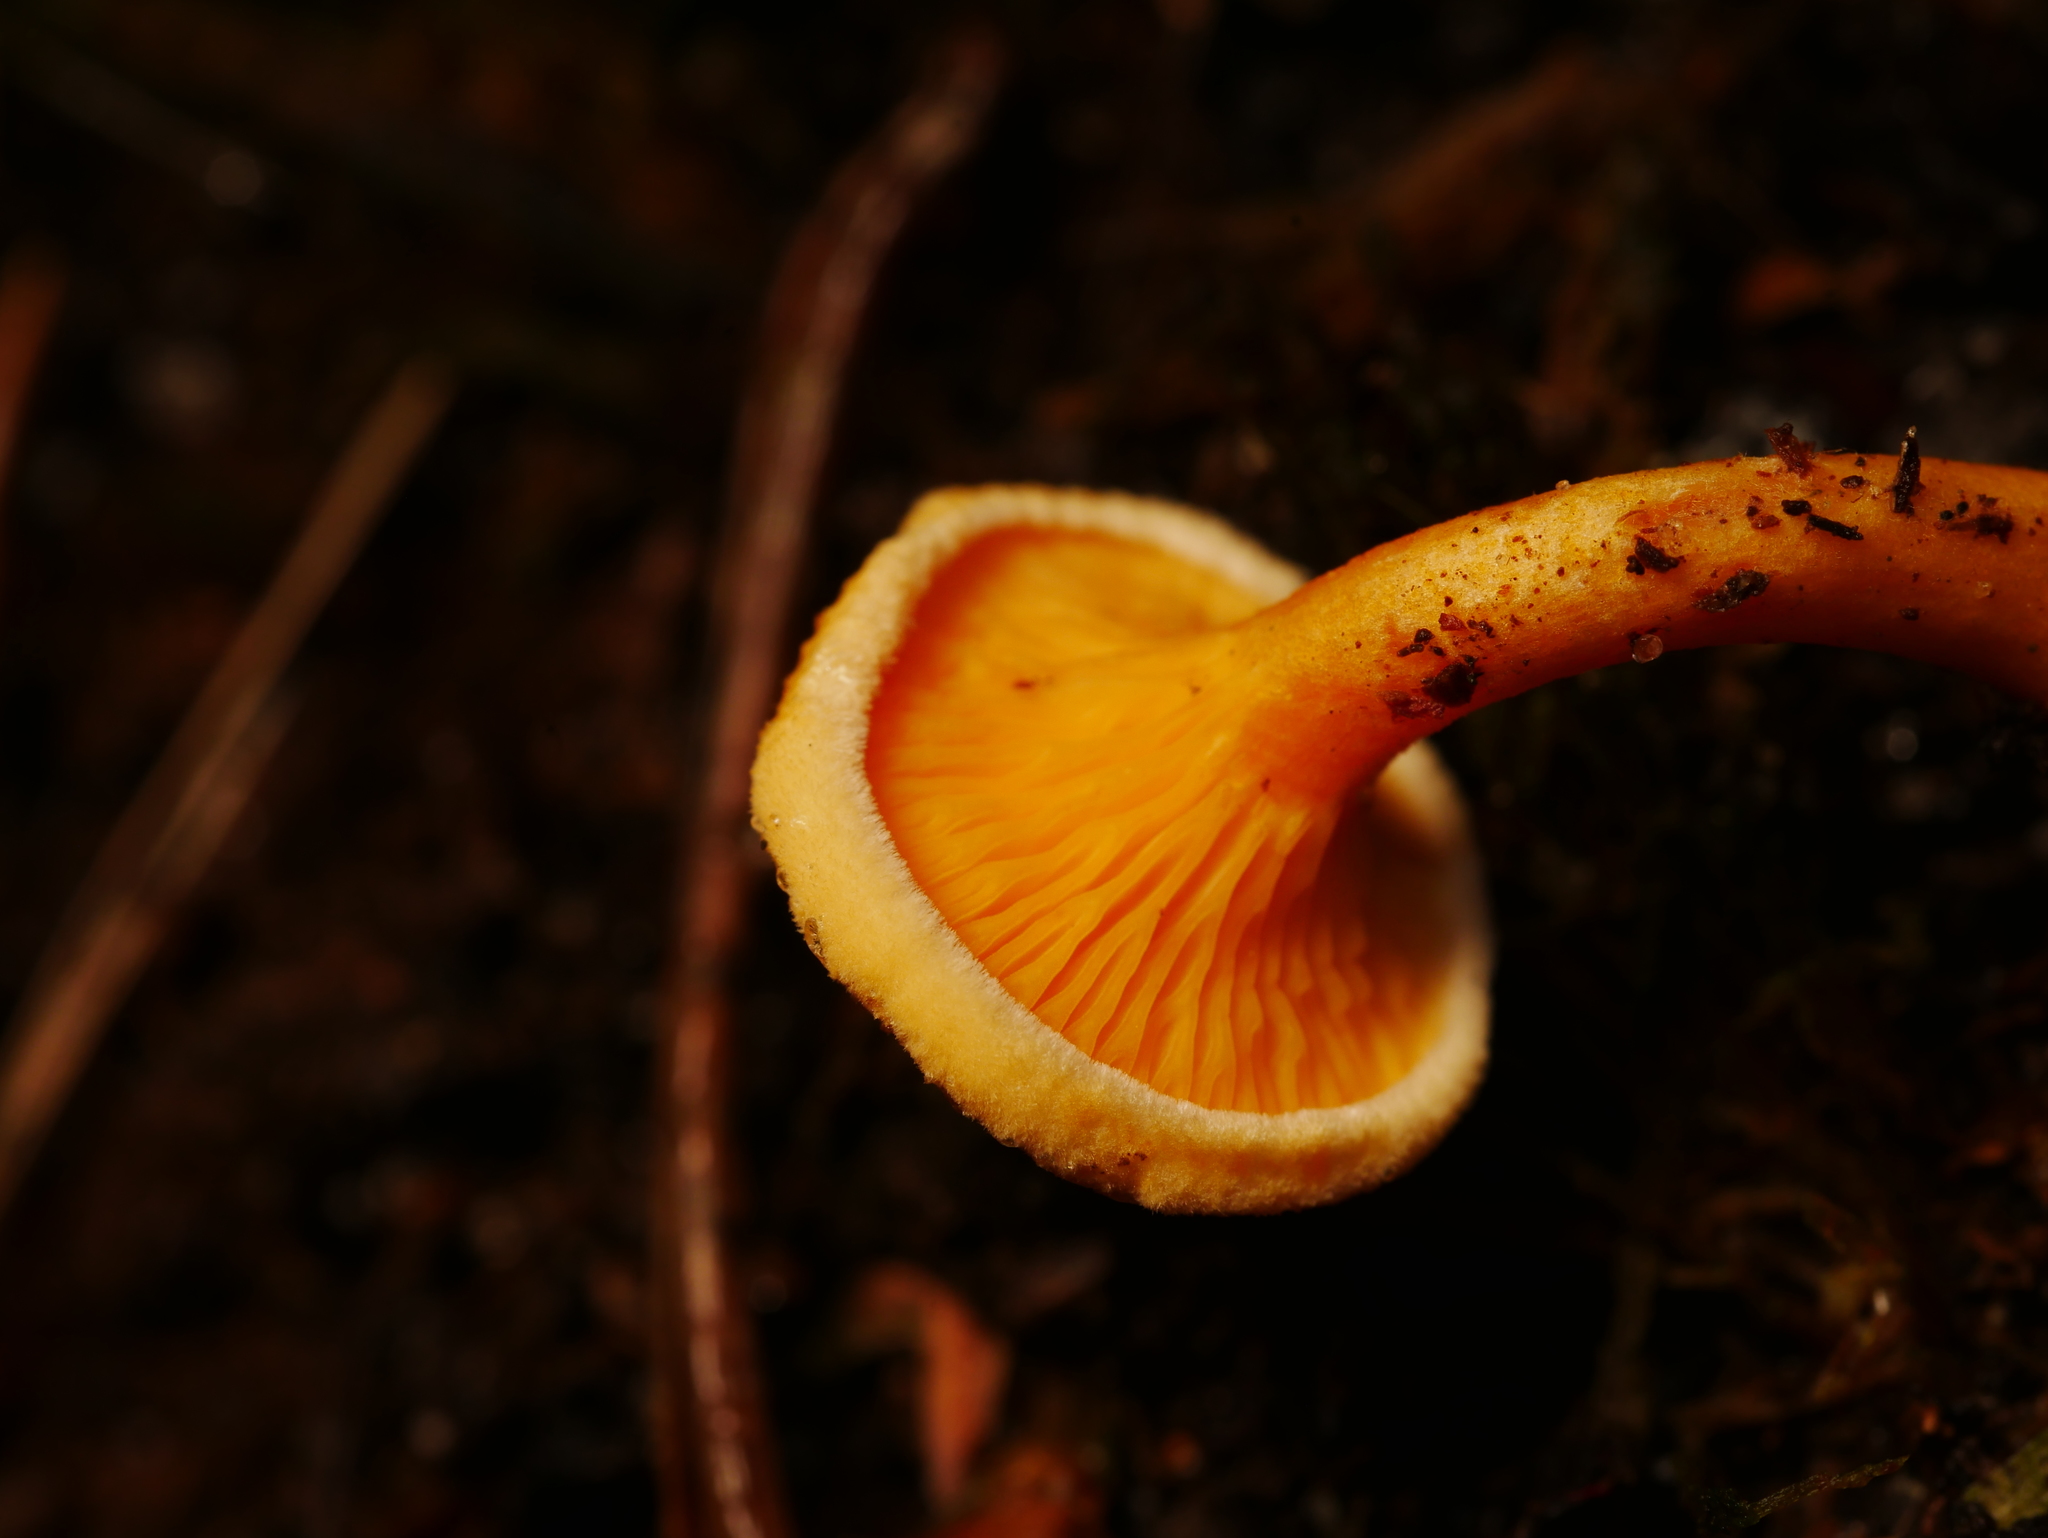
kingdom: Fungi
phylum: Basidiomycota
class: Agaricomycetes
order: Boletales
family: Hygrophoropsidaceae
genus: Hygrophoropsis
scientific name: Hygrophoropsis aurantiaca
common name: False chanterelle
